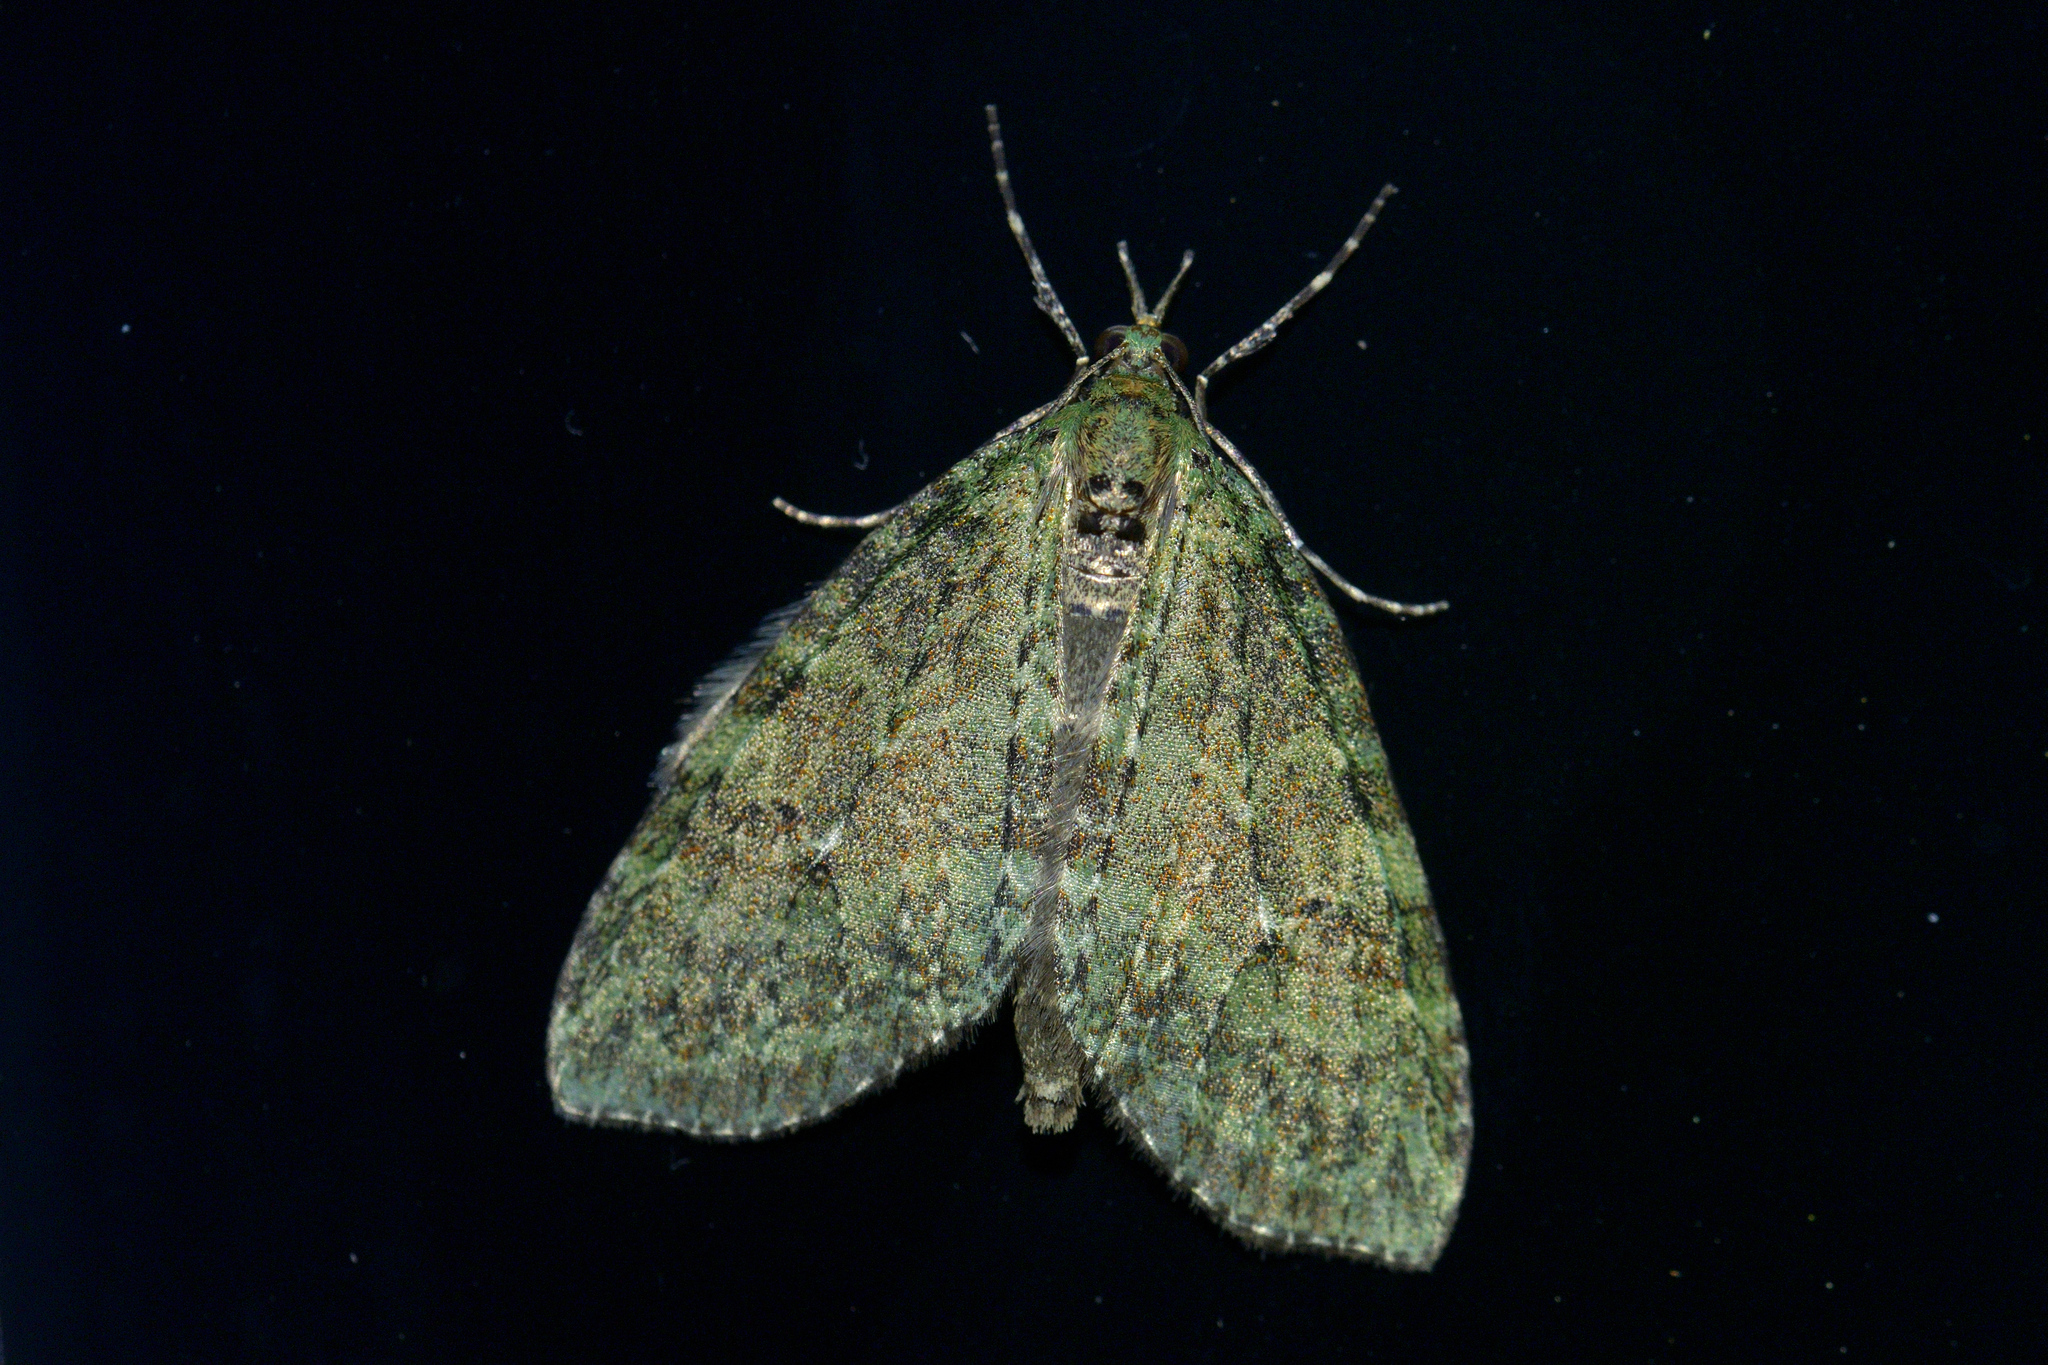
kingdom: Animalia
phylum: Arthropoda
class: Insecta
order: Lepidoptera
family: Geometridae
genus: Tatosoma
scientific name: Tatosoma transitaria
